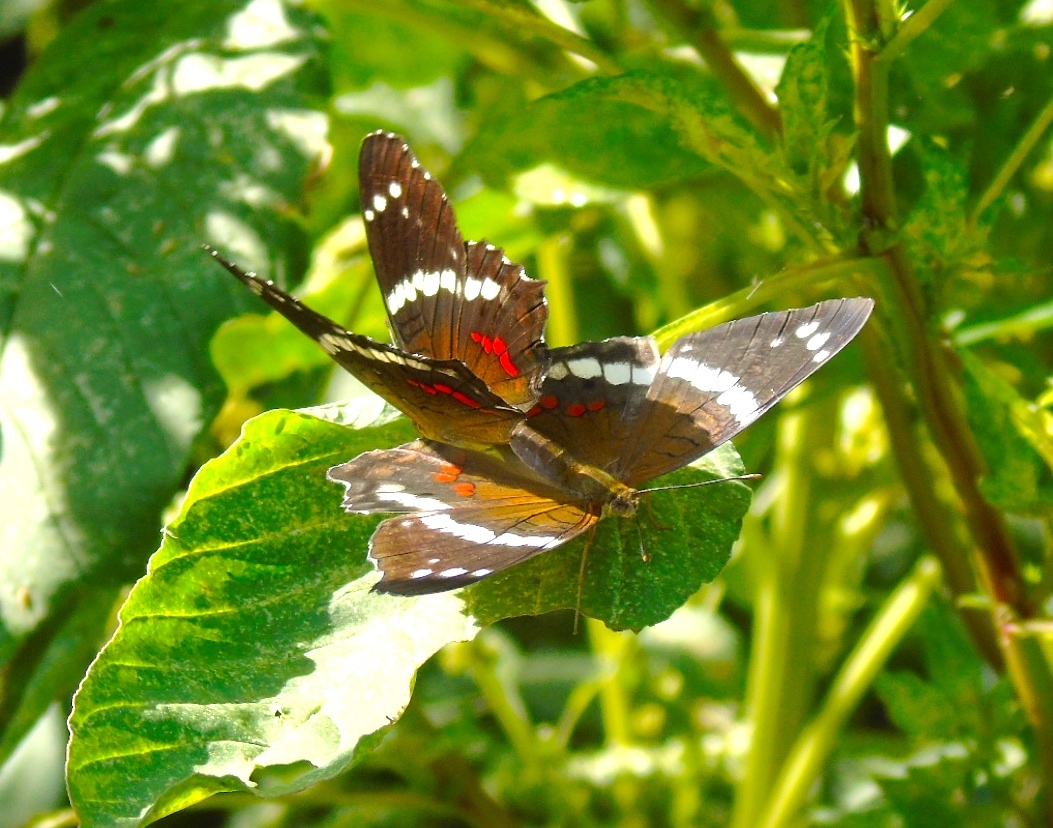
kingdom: Animalia
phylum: Arthropoda
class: Insecta
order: Lepidoptera
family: Nymphalidae
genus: Anartia
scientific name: Anartia fatima
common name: Banded peacock
